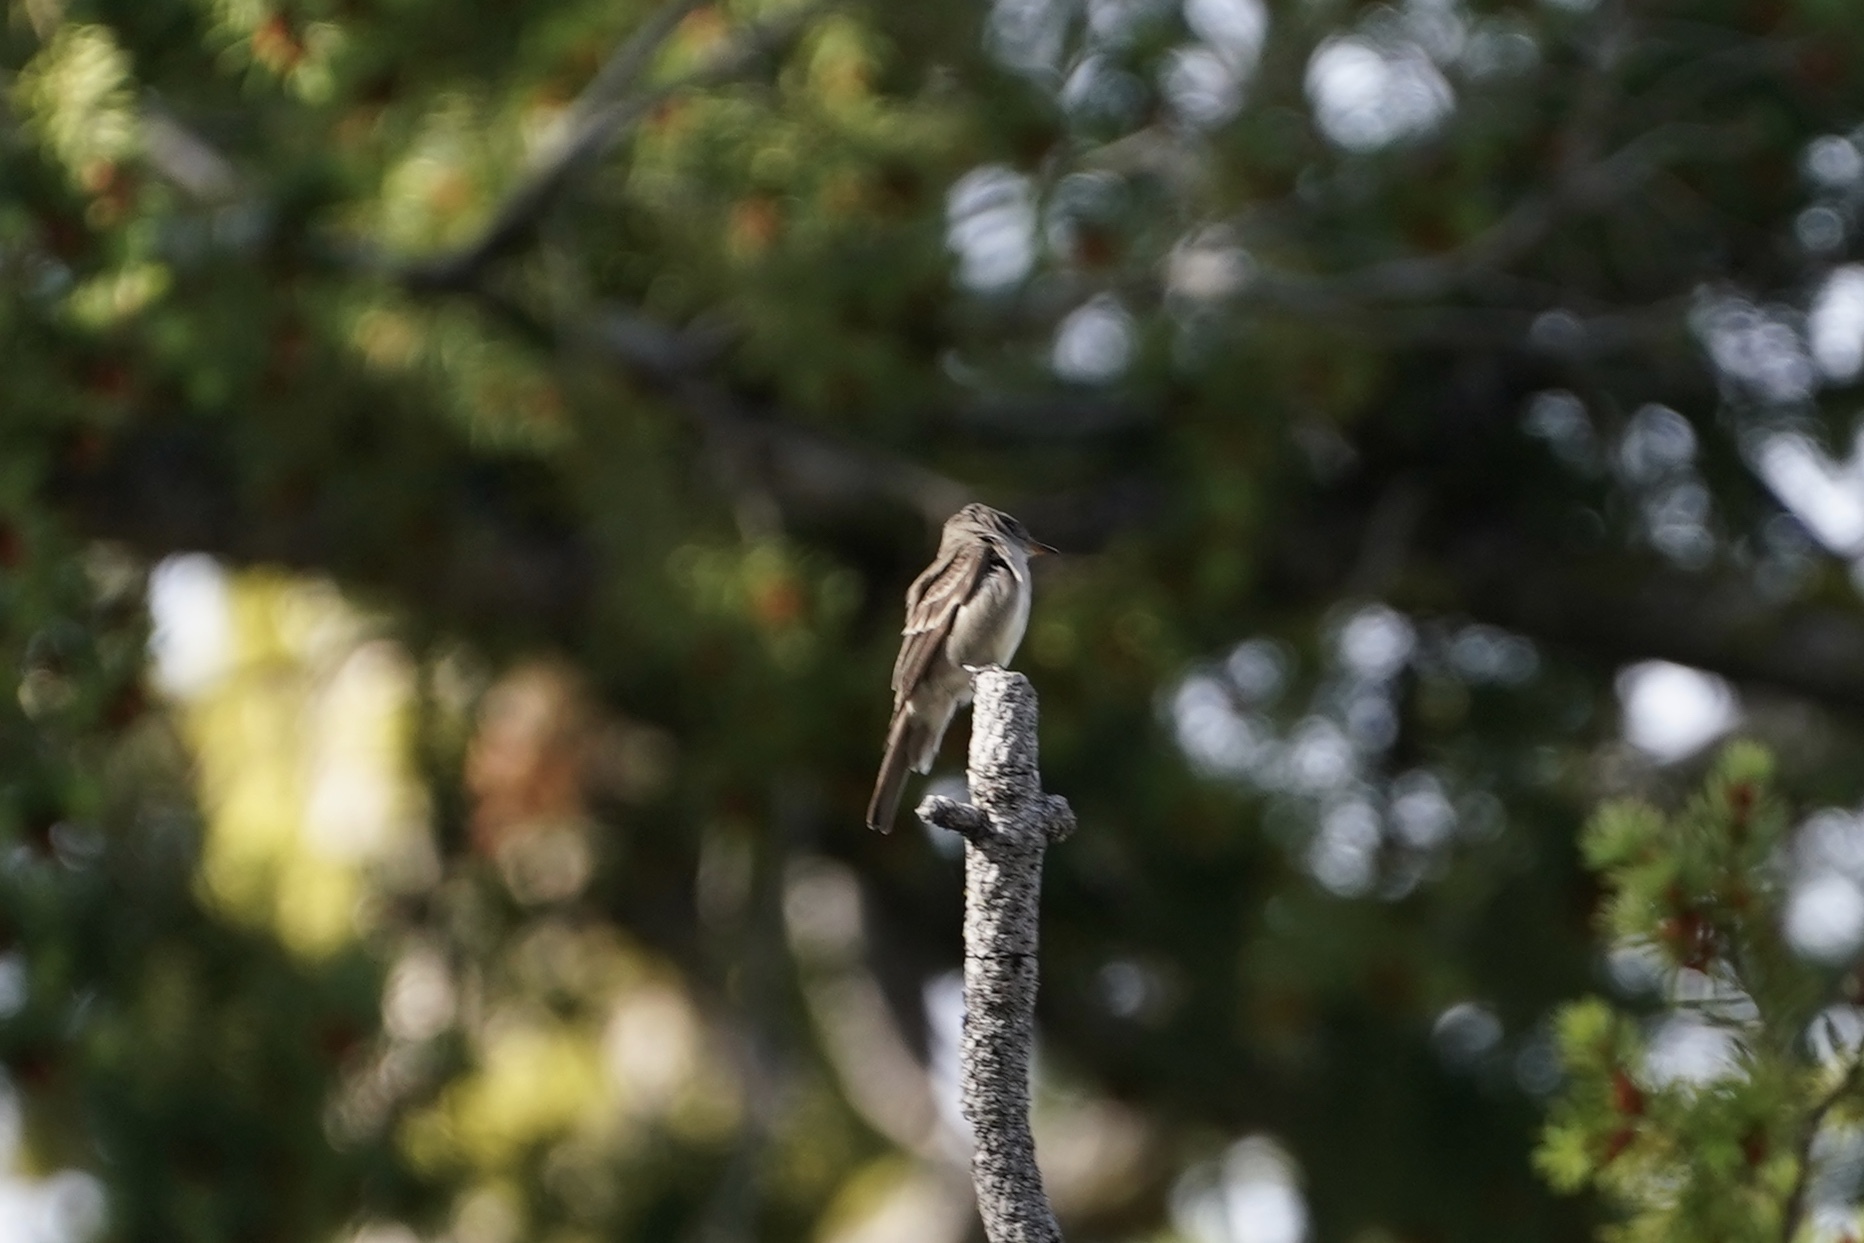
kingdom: Animalia
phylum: Chordata
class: Aves
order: Passeriformes
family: Tyrannidae
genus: Contopus
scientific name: Contopus sordidulus
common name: Western wood-pewee
